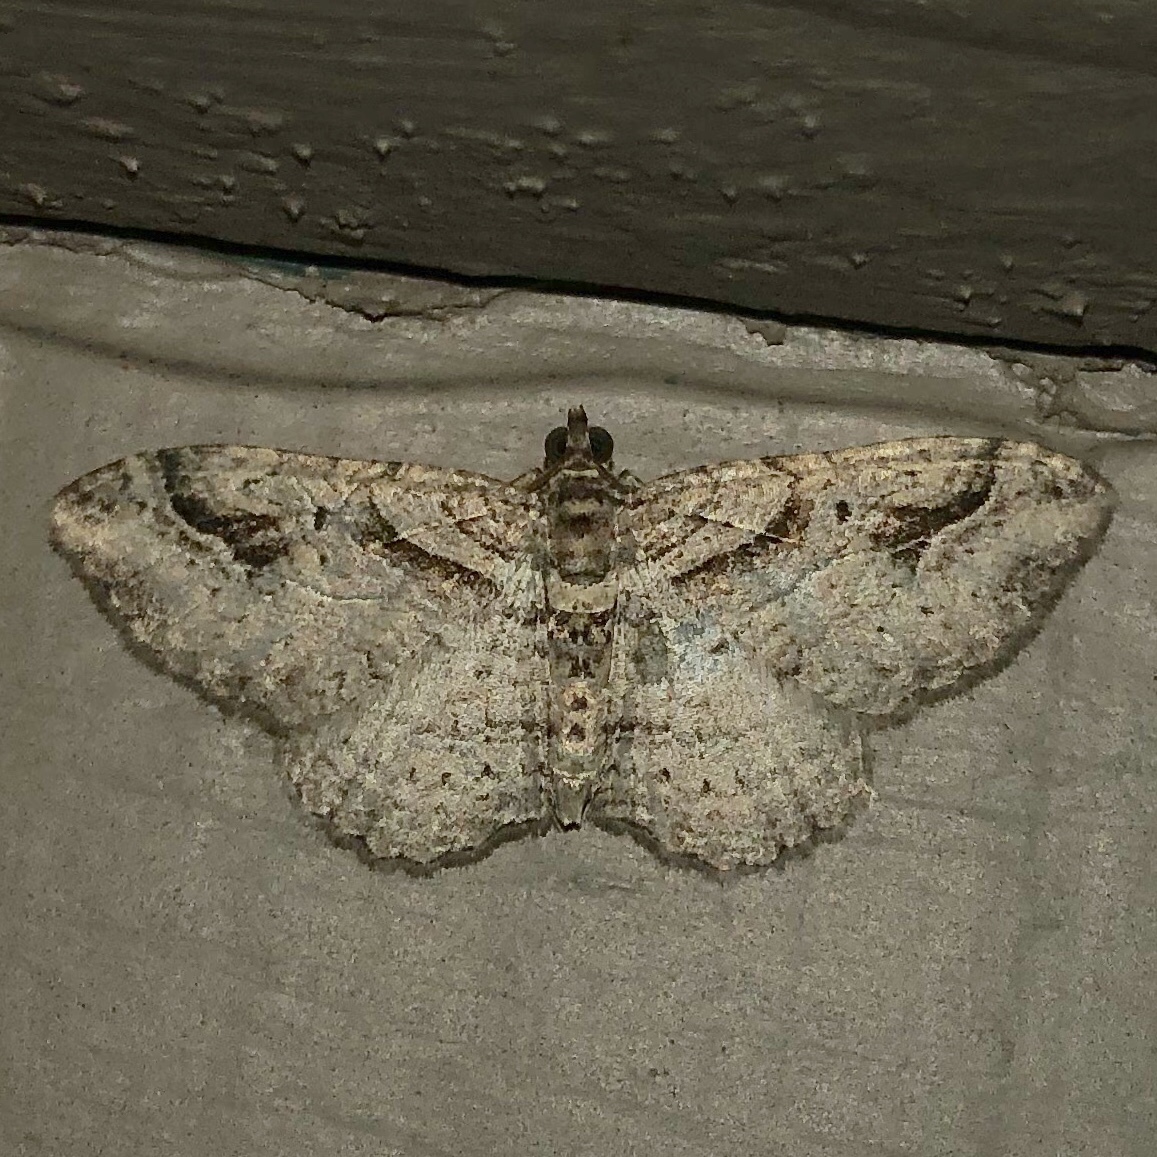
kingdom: Animalia
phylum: Arthropoda
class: Insecta
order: Lepidoptera
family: Geometridae
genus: Costaconvexa
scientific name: Costaconvexa centrostrigaria
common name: Bent-line carpet
